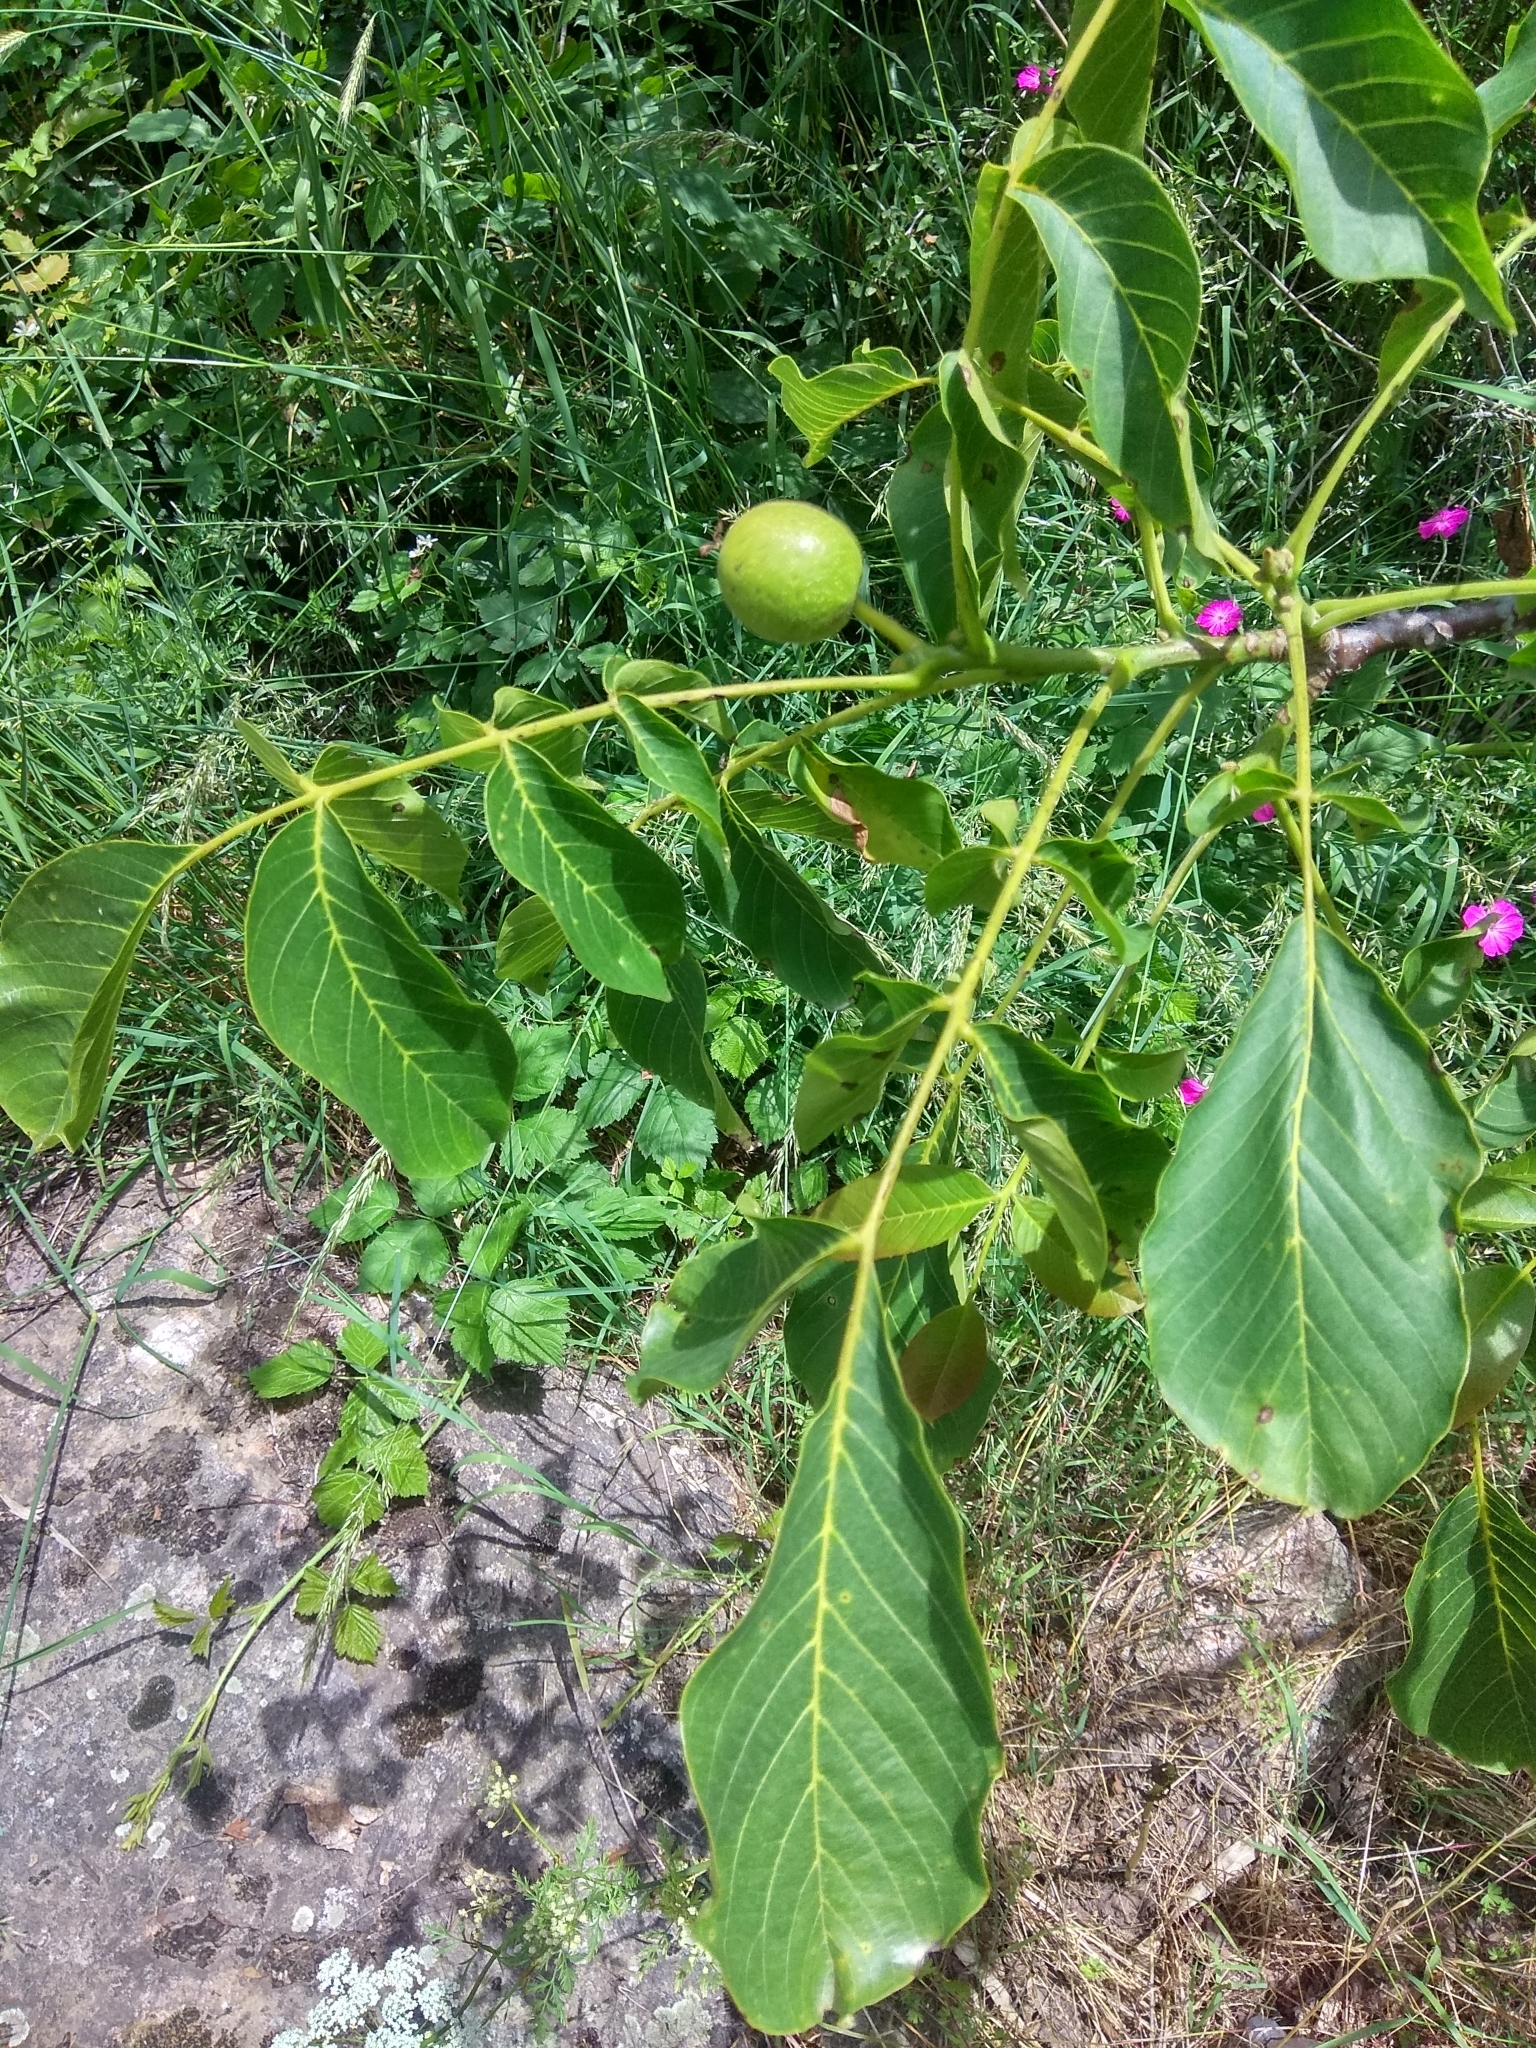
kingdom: Plantae
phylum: Tracheophyta
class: Magnoliopsida
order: Fagales
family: Juglandaceae
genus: Juglans
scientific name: Juglans regia
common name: Walnut
